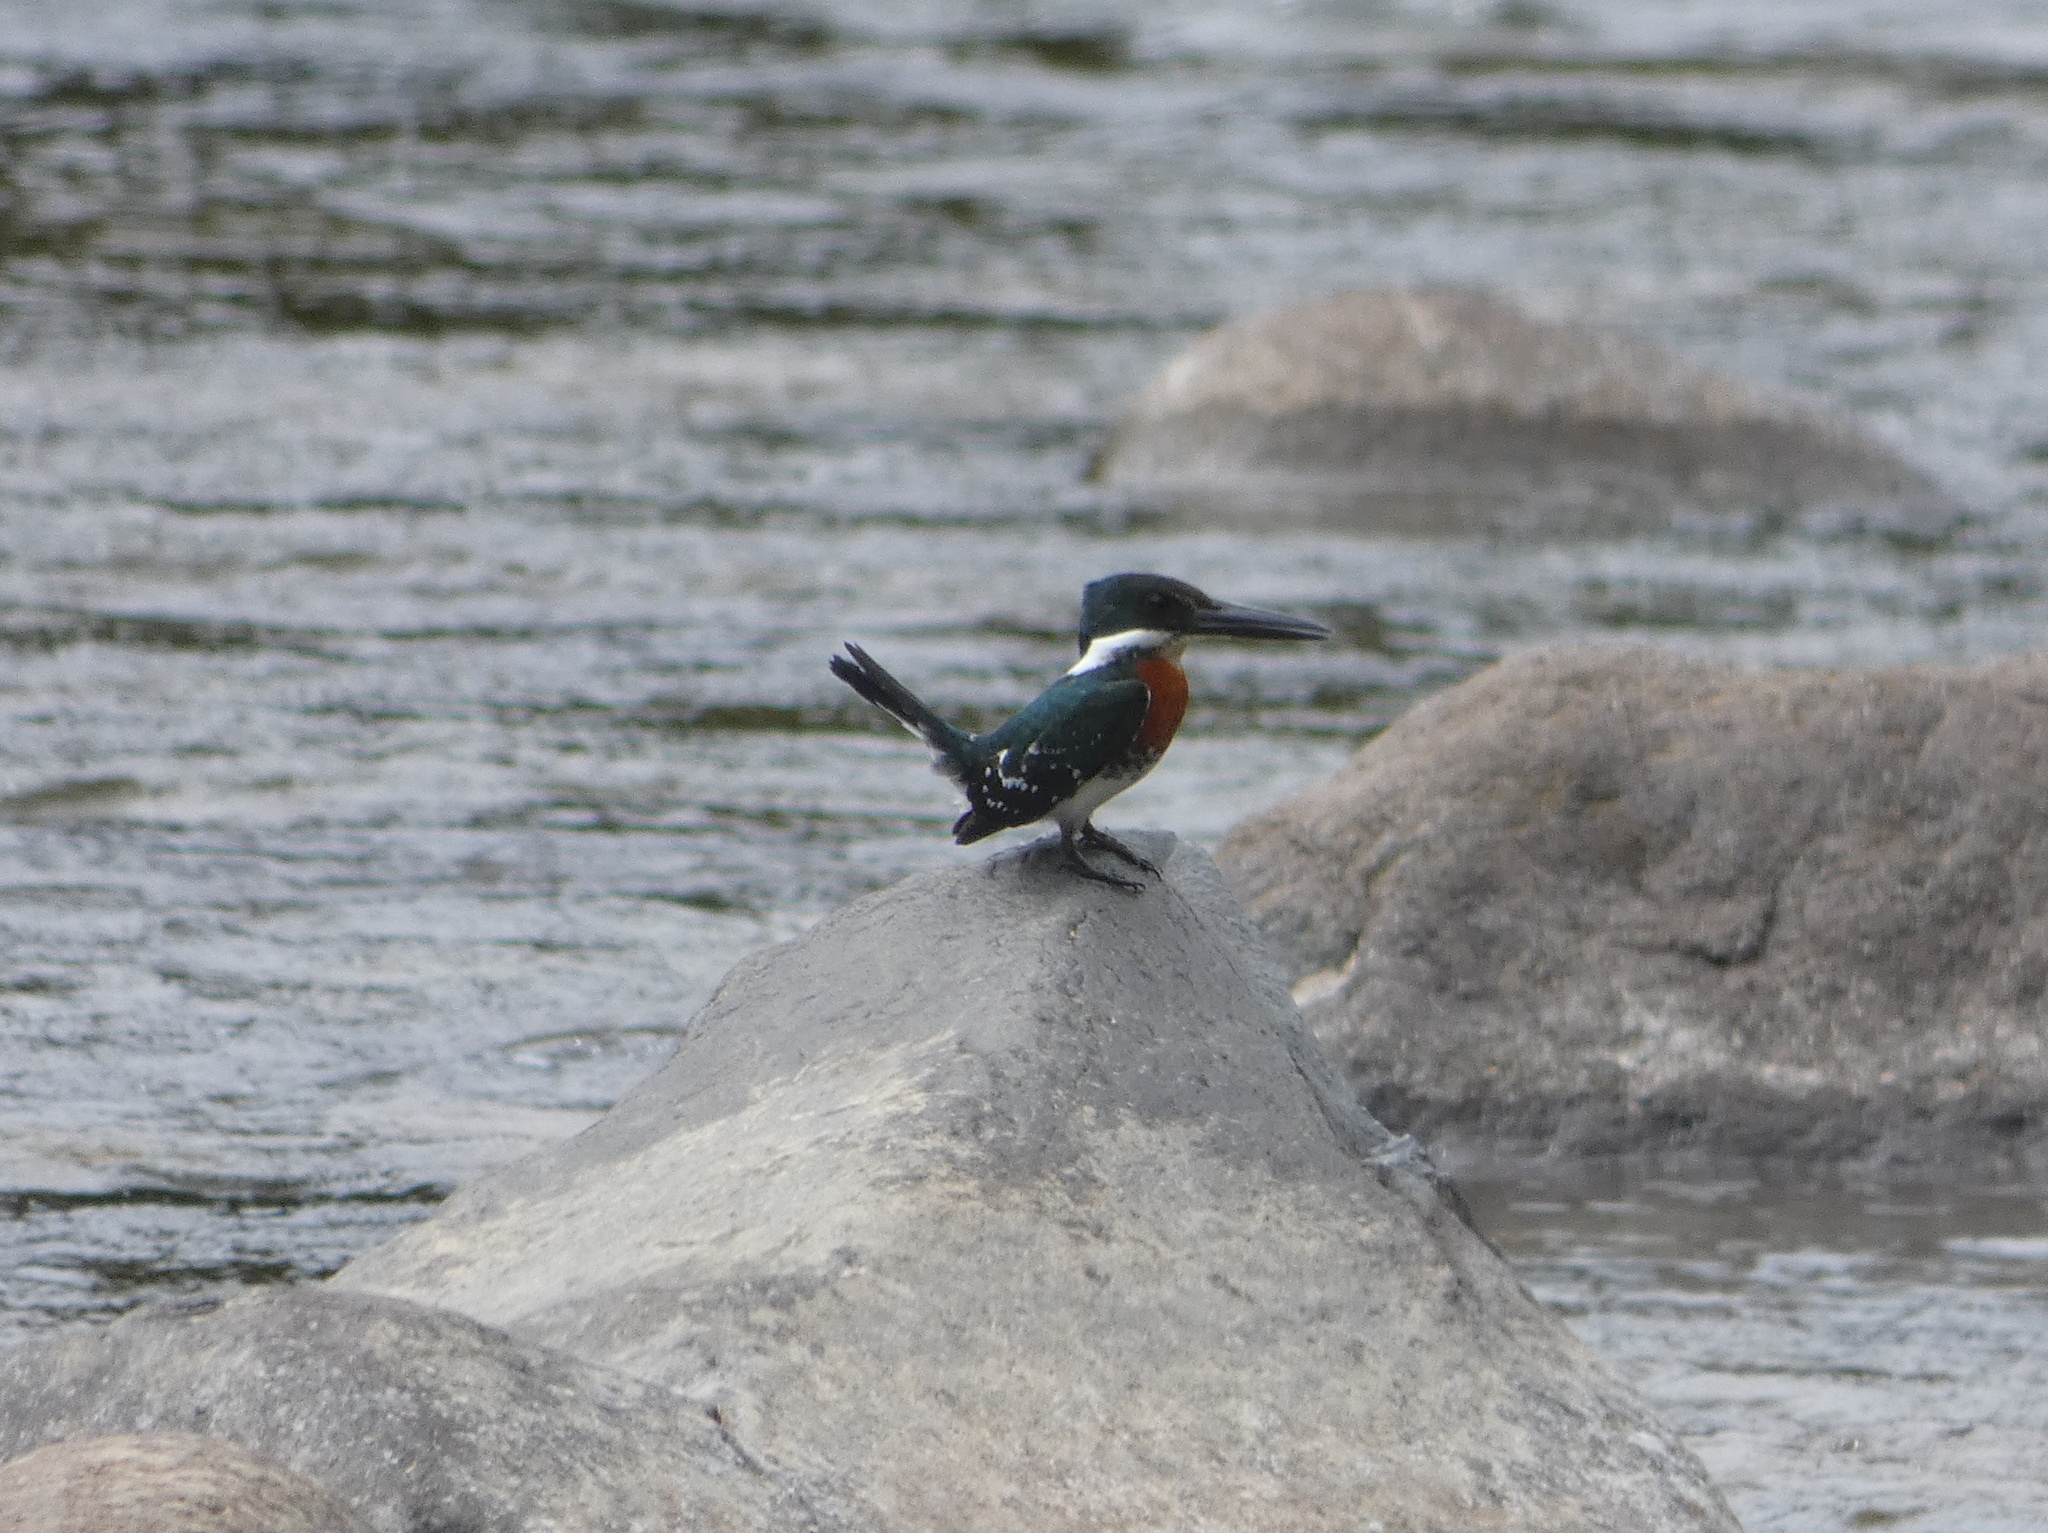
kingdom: Animalia
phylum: Chordata
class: Aves
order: Coraciiformes
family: Alcedinidae
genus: Chloroceryle
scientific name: Chloroceryle americana
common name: Green kingfisher
